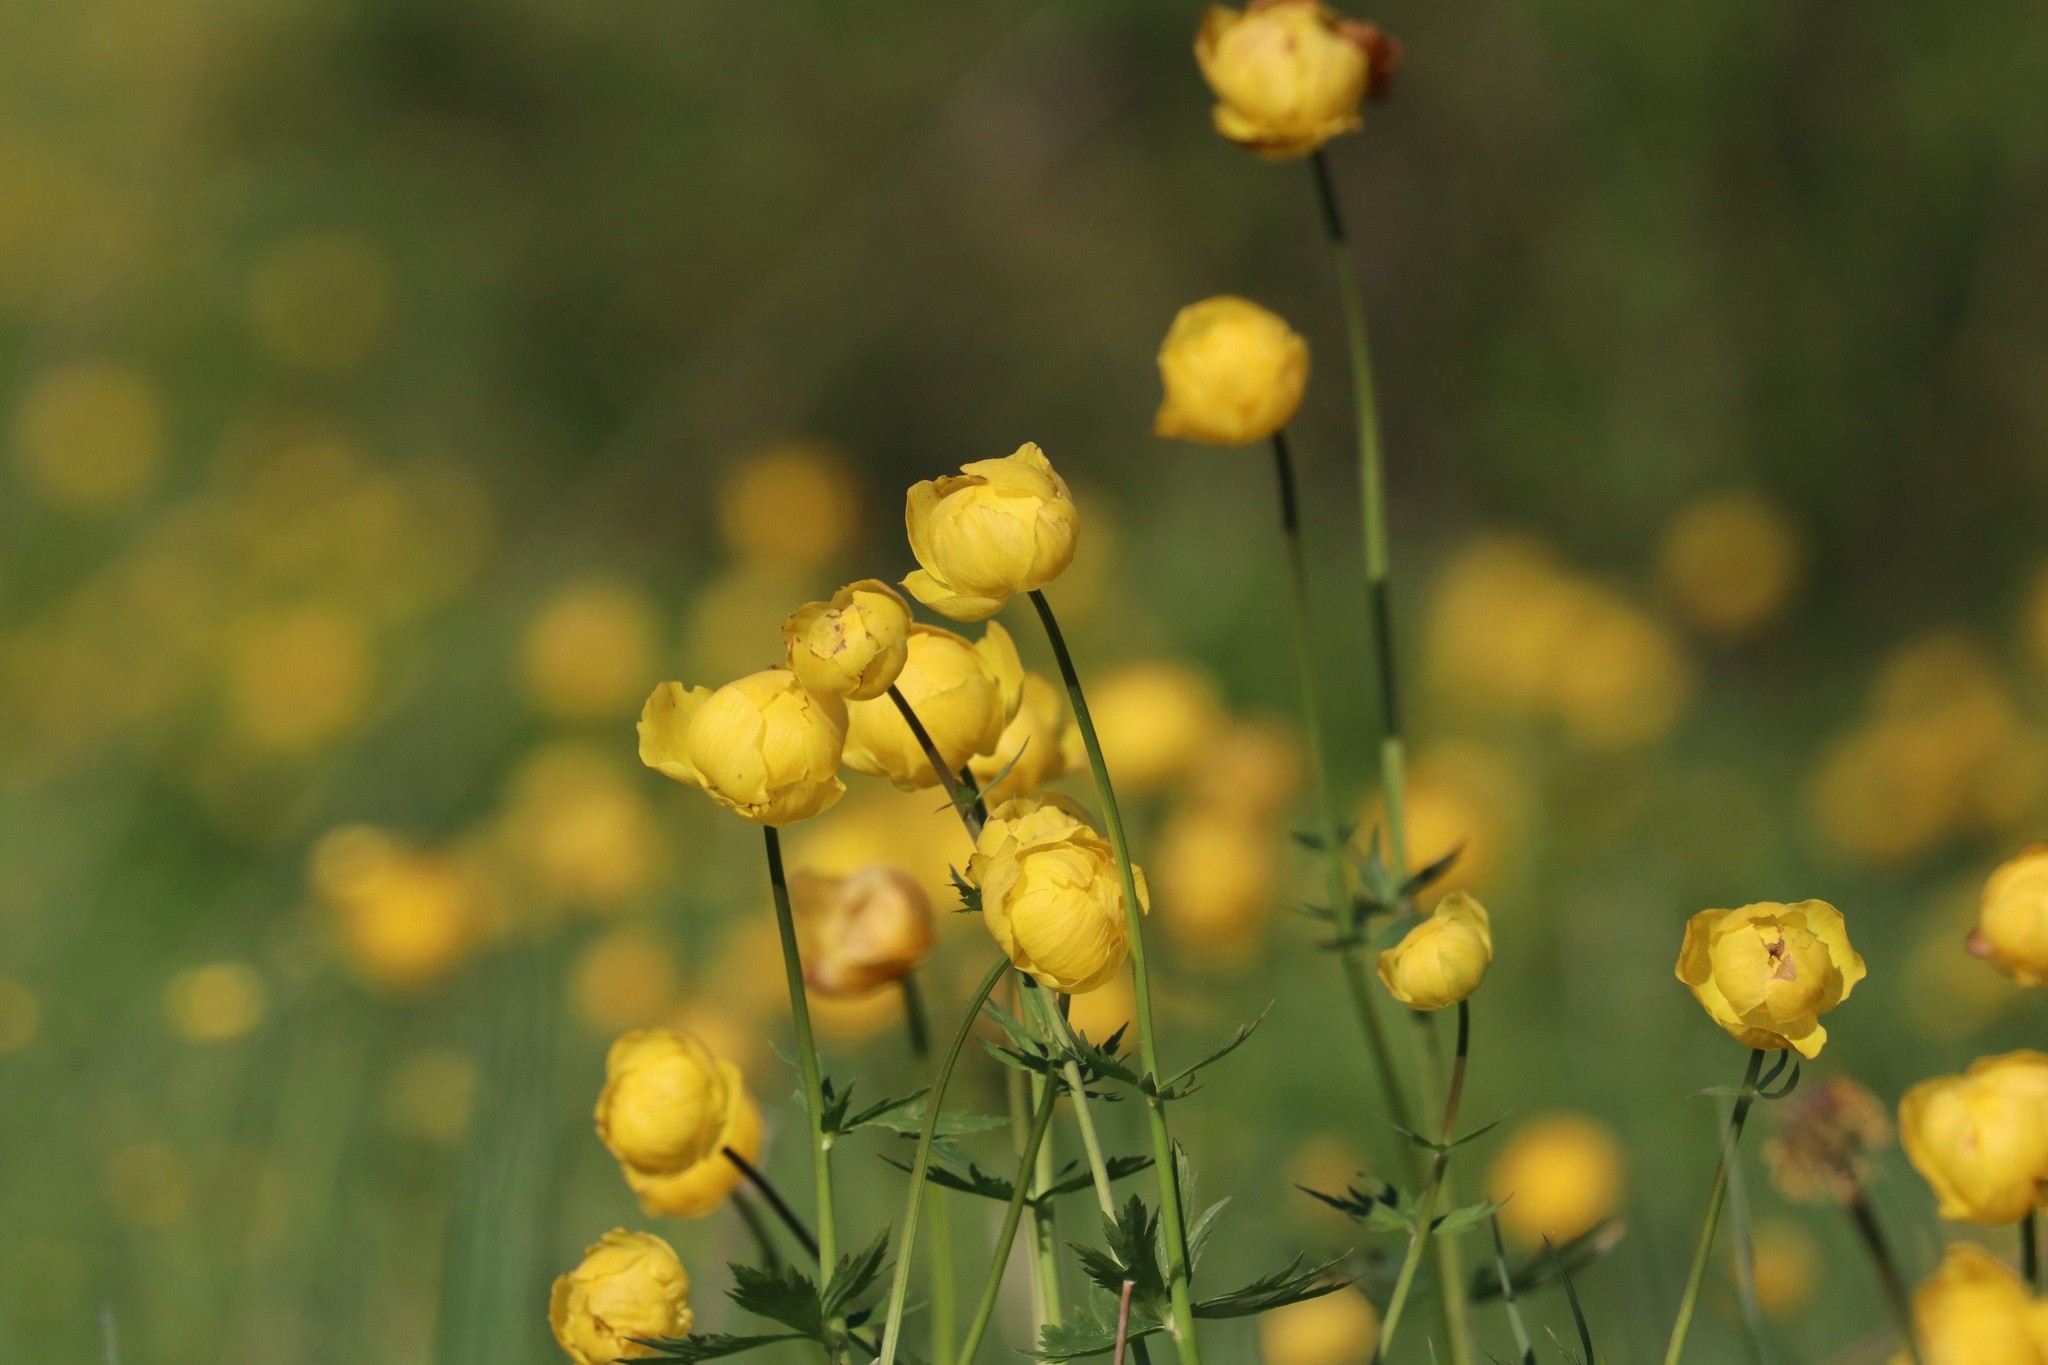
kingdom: Plantae
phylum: Tracheophyta
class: Magnoliopsida
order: Ranunculales
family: Ranunculaceae
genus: Trollius
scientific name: Trollius europaeus
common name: European globeflower
